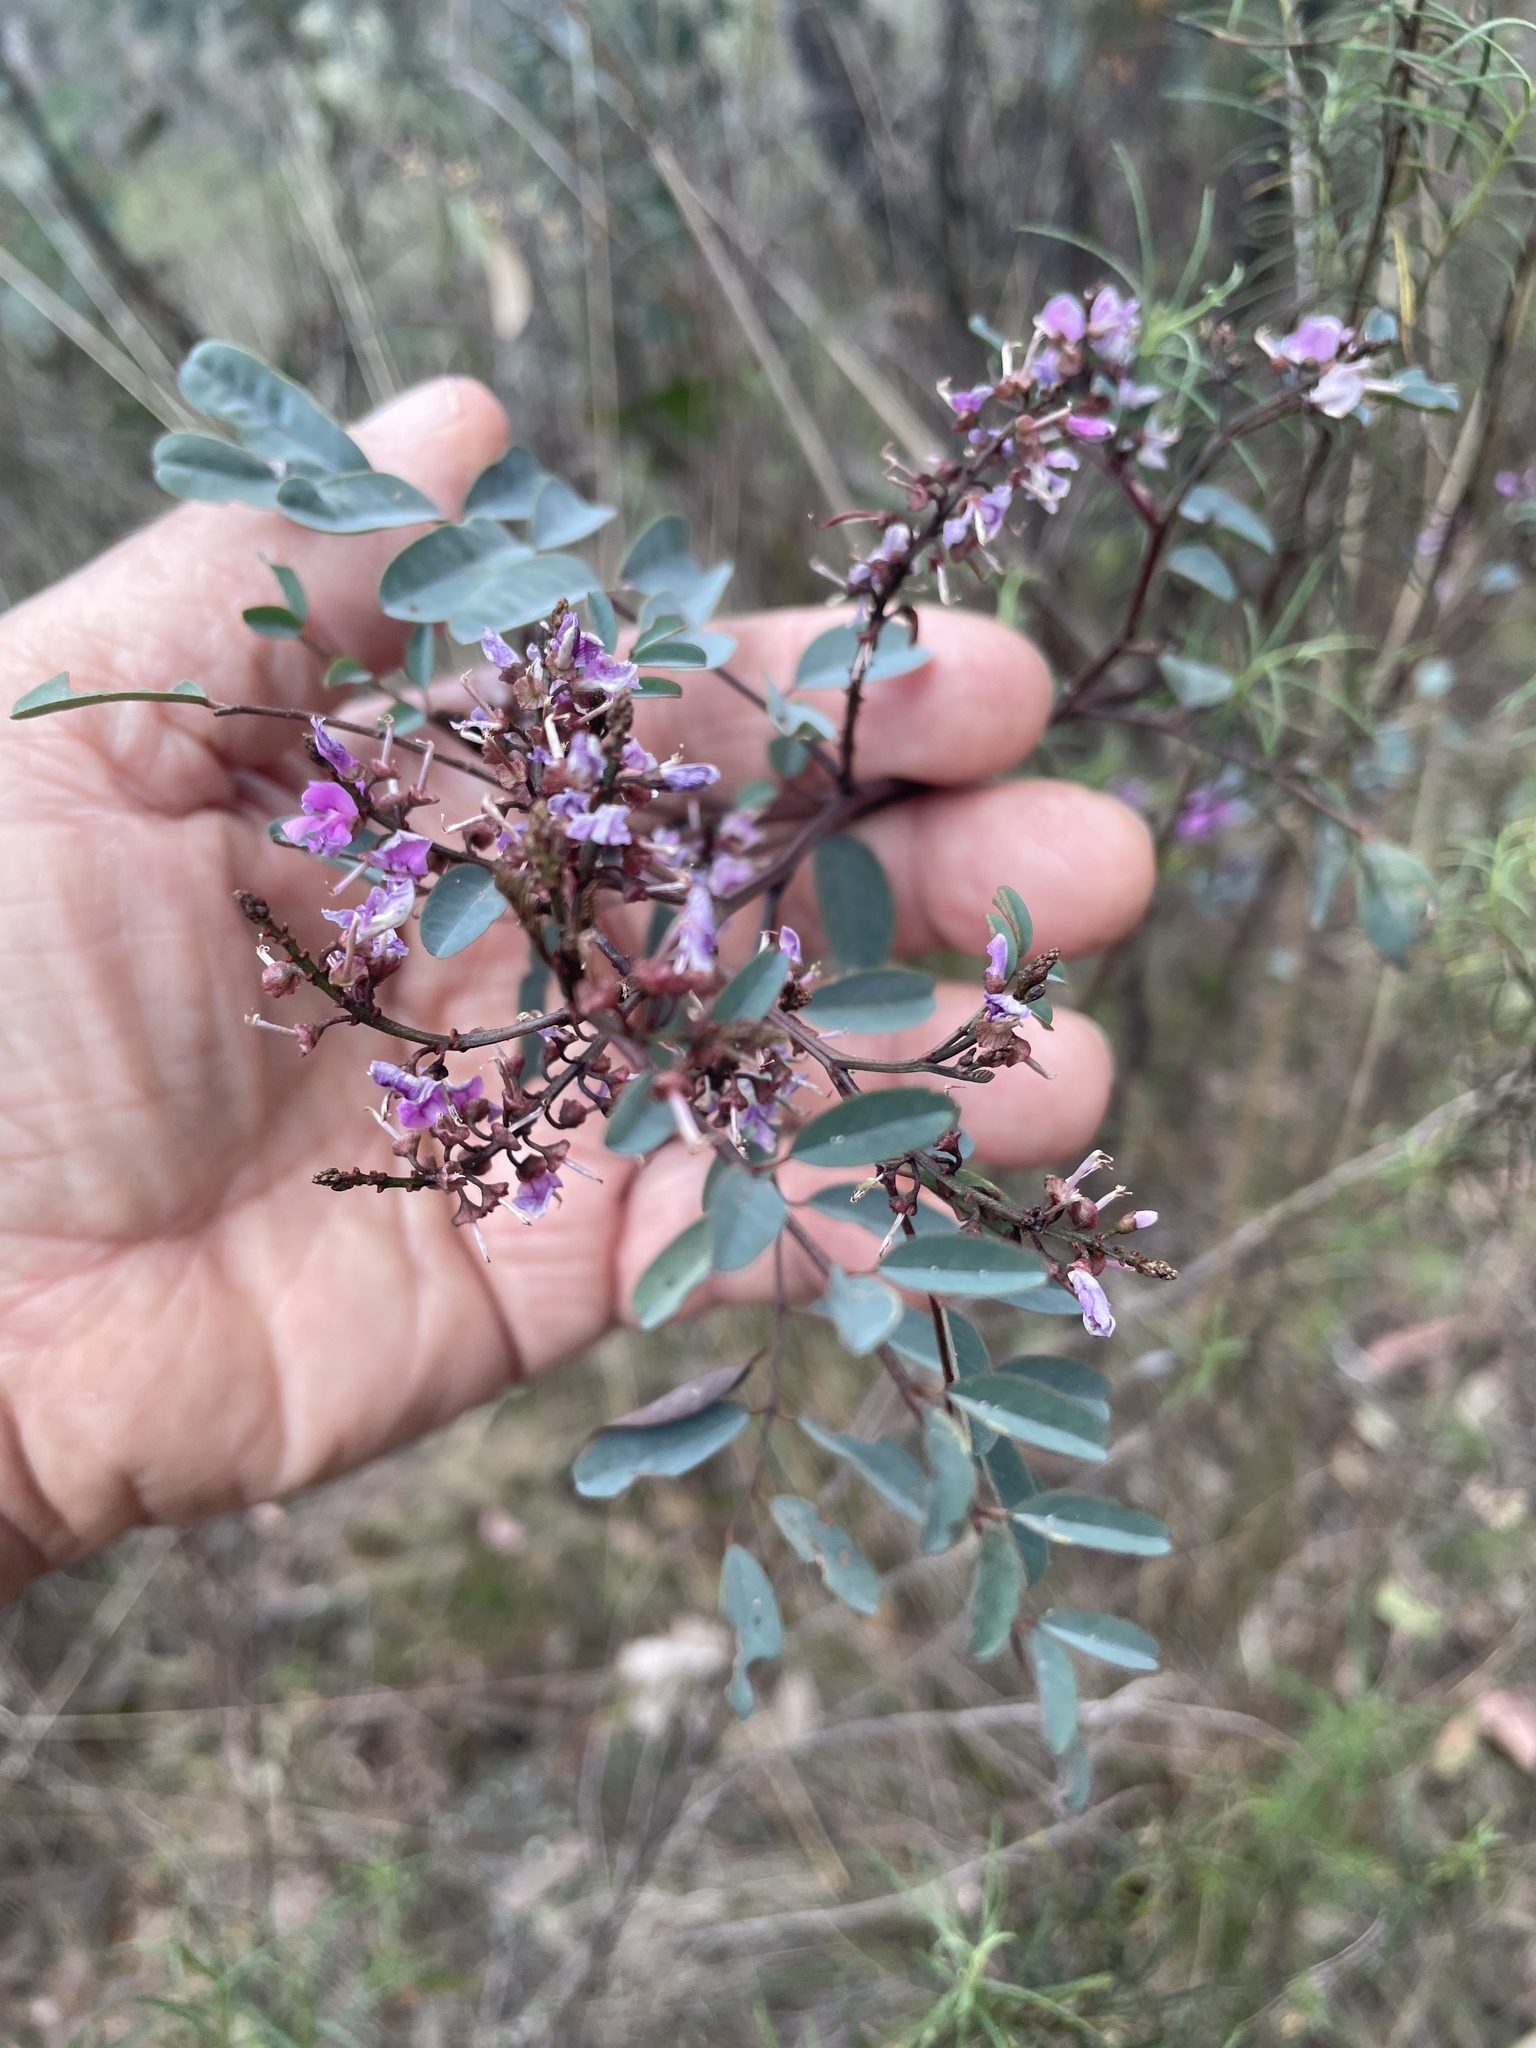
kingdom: Plantae
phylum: Tracheophyta
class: Magnoliopsida
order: Fabales
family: Fabaceae
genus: Indigofera
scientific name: Indigofera australis
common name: Australian indigo
